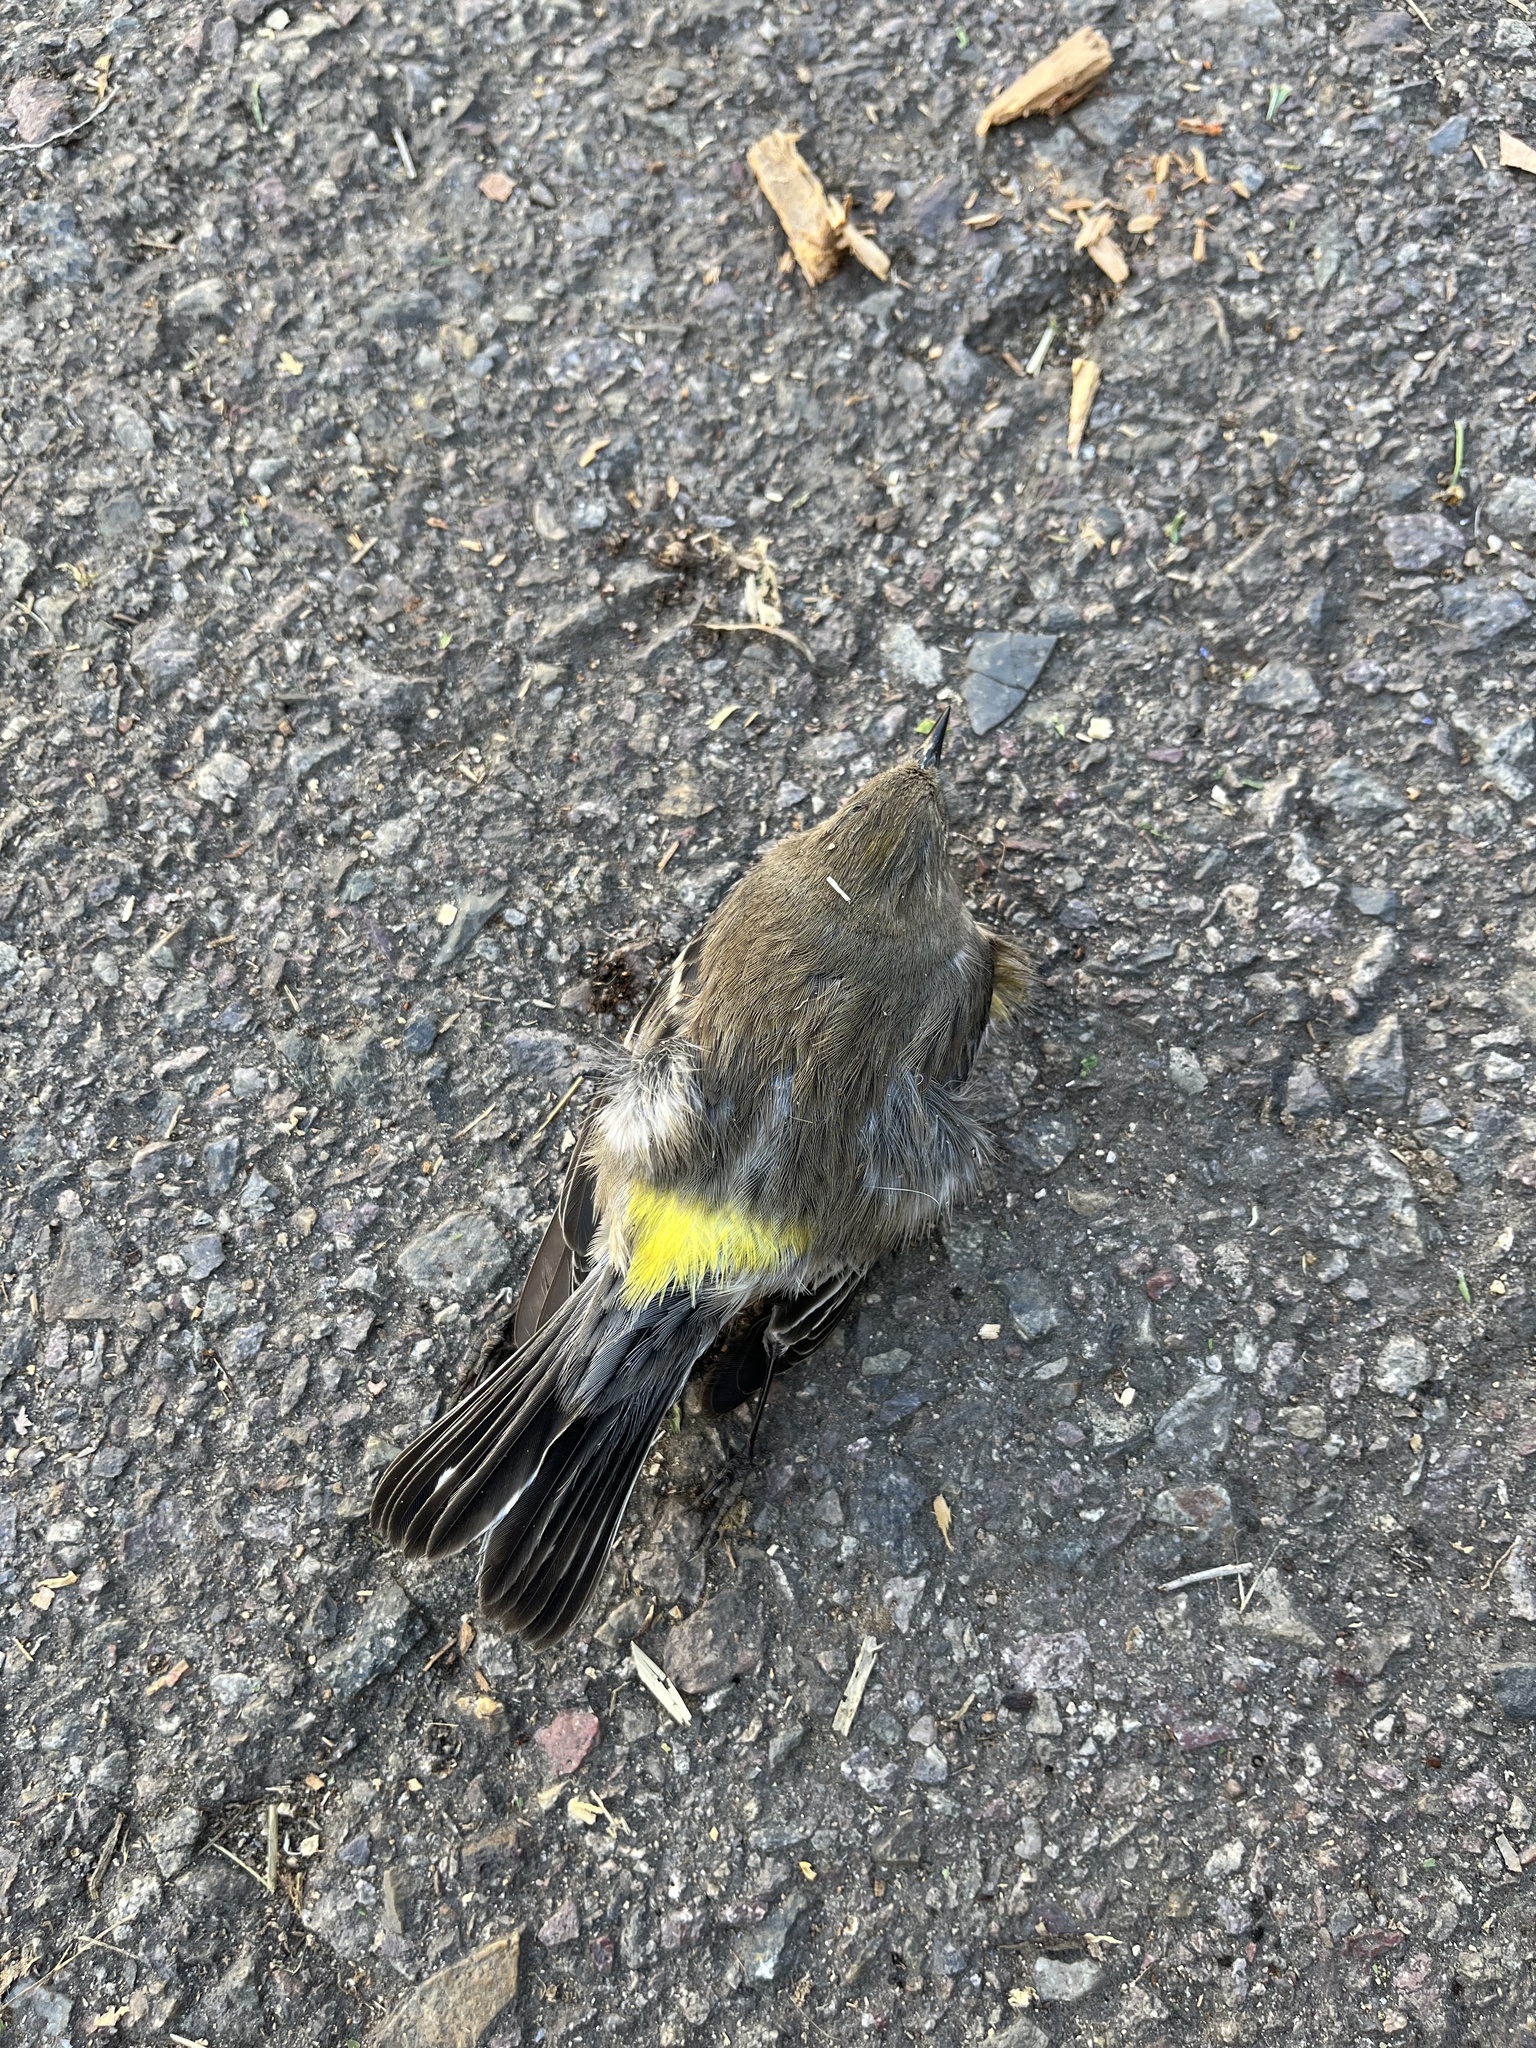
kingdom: Animalia
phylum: Chordata
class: Aves
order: Passeriformes
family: Parulidae
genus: Setophaga
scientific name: Setophaga coronata
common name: Myrtle warbler
